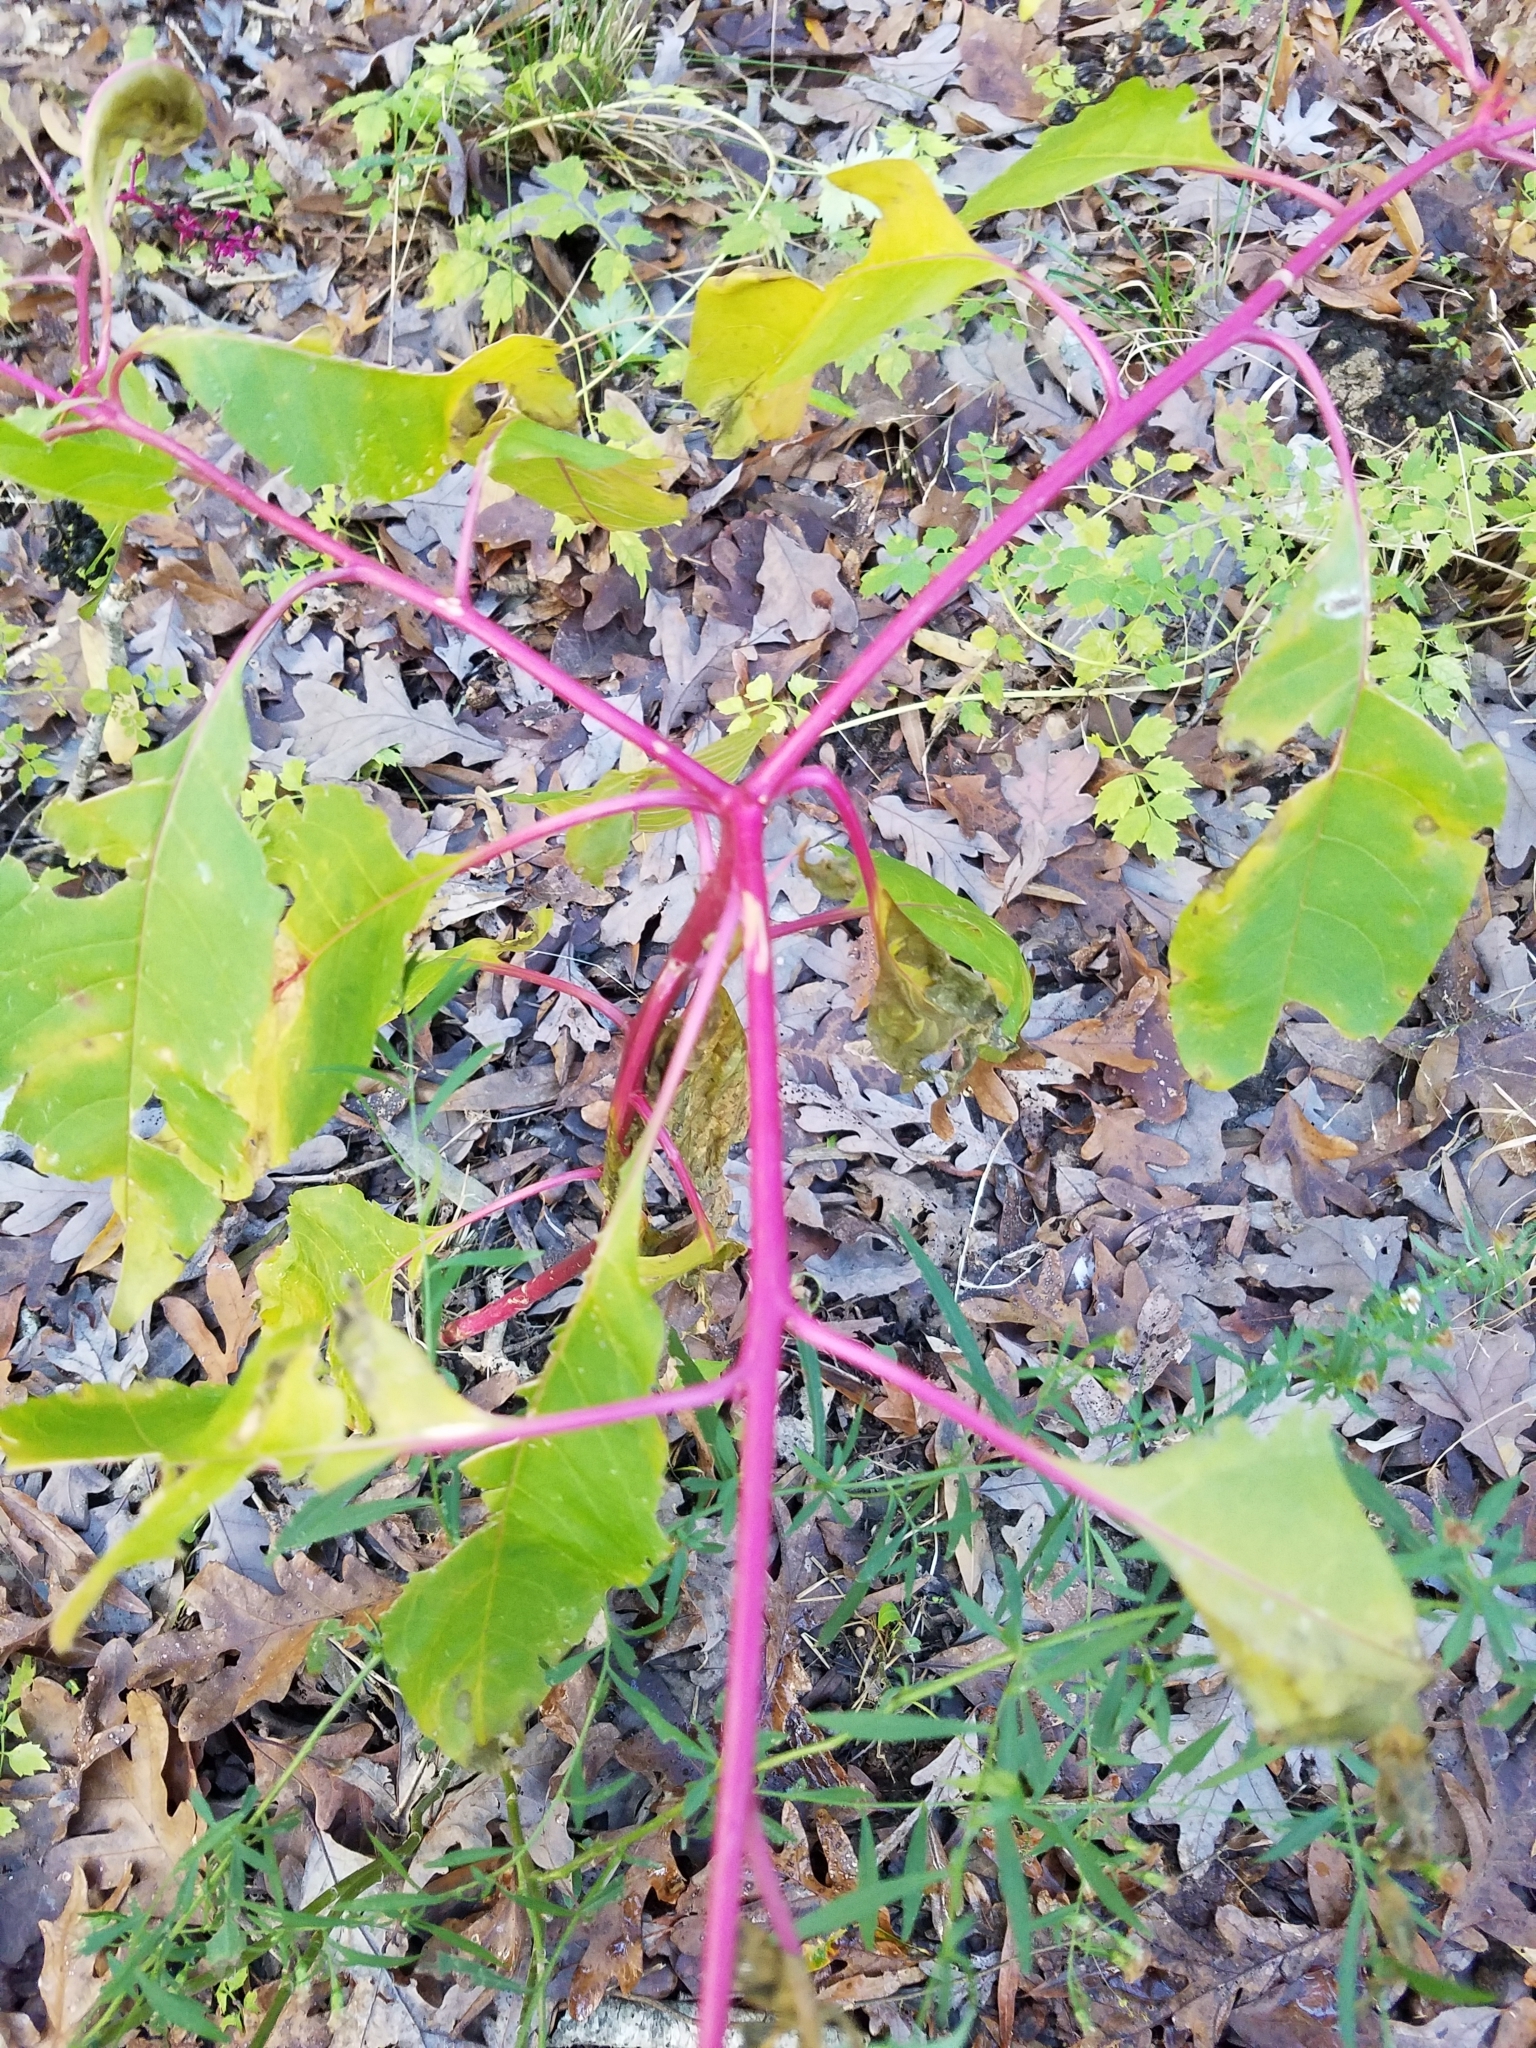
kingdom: Plantae
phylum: Tracheophyta
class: Magnoliopsida
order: Caryophyllales
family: Phytolaccaceae
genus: Phytolacca
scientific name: Phytolacca americana
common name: American pokeweed
